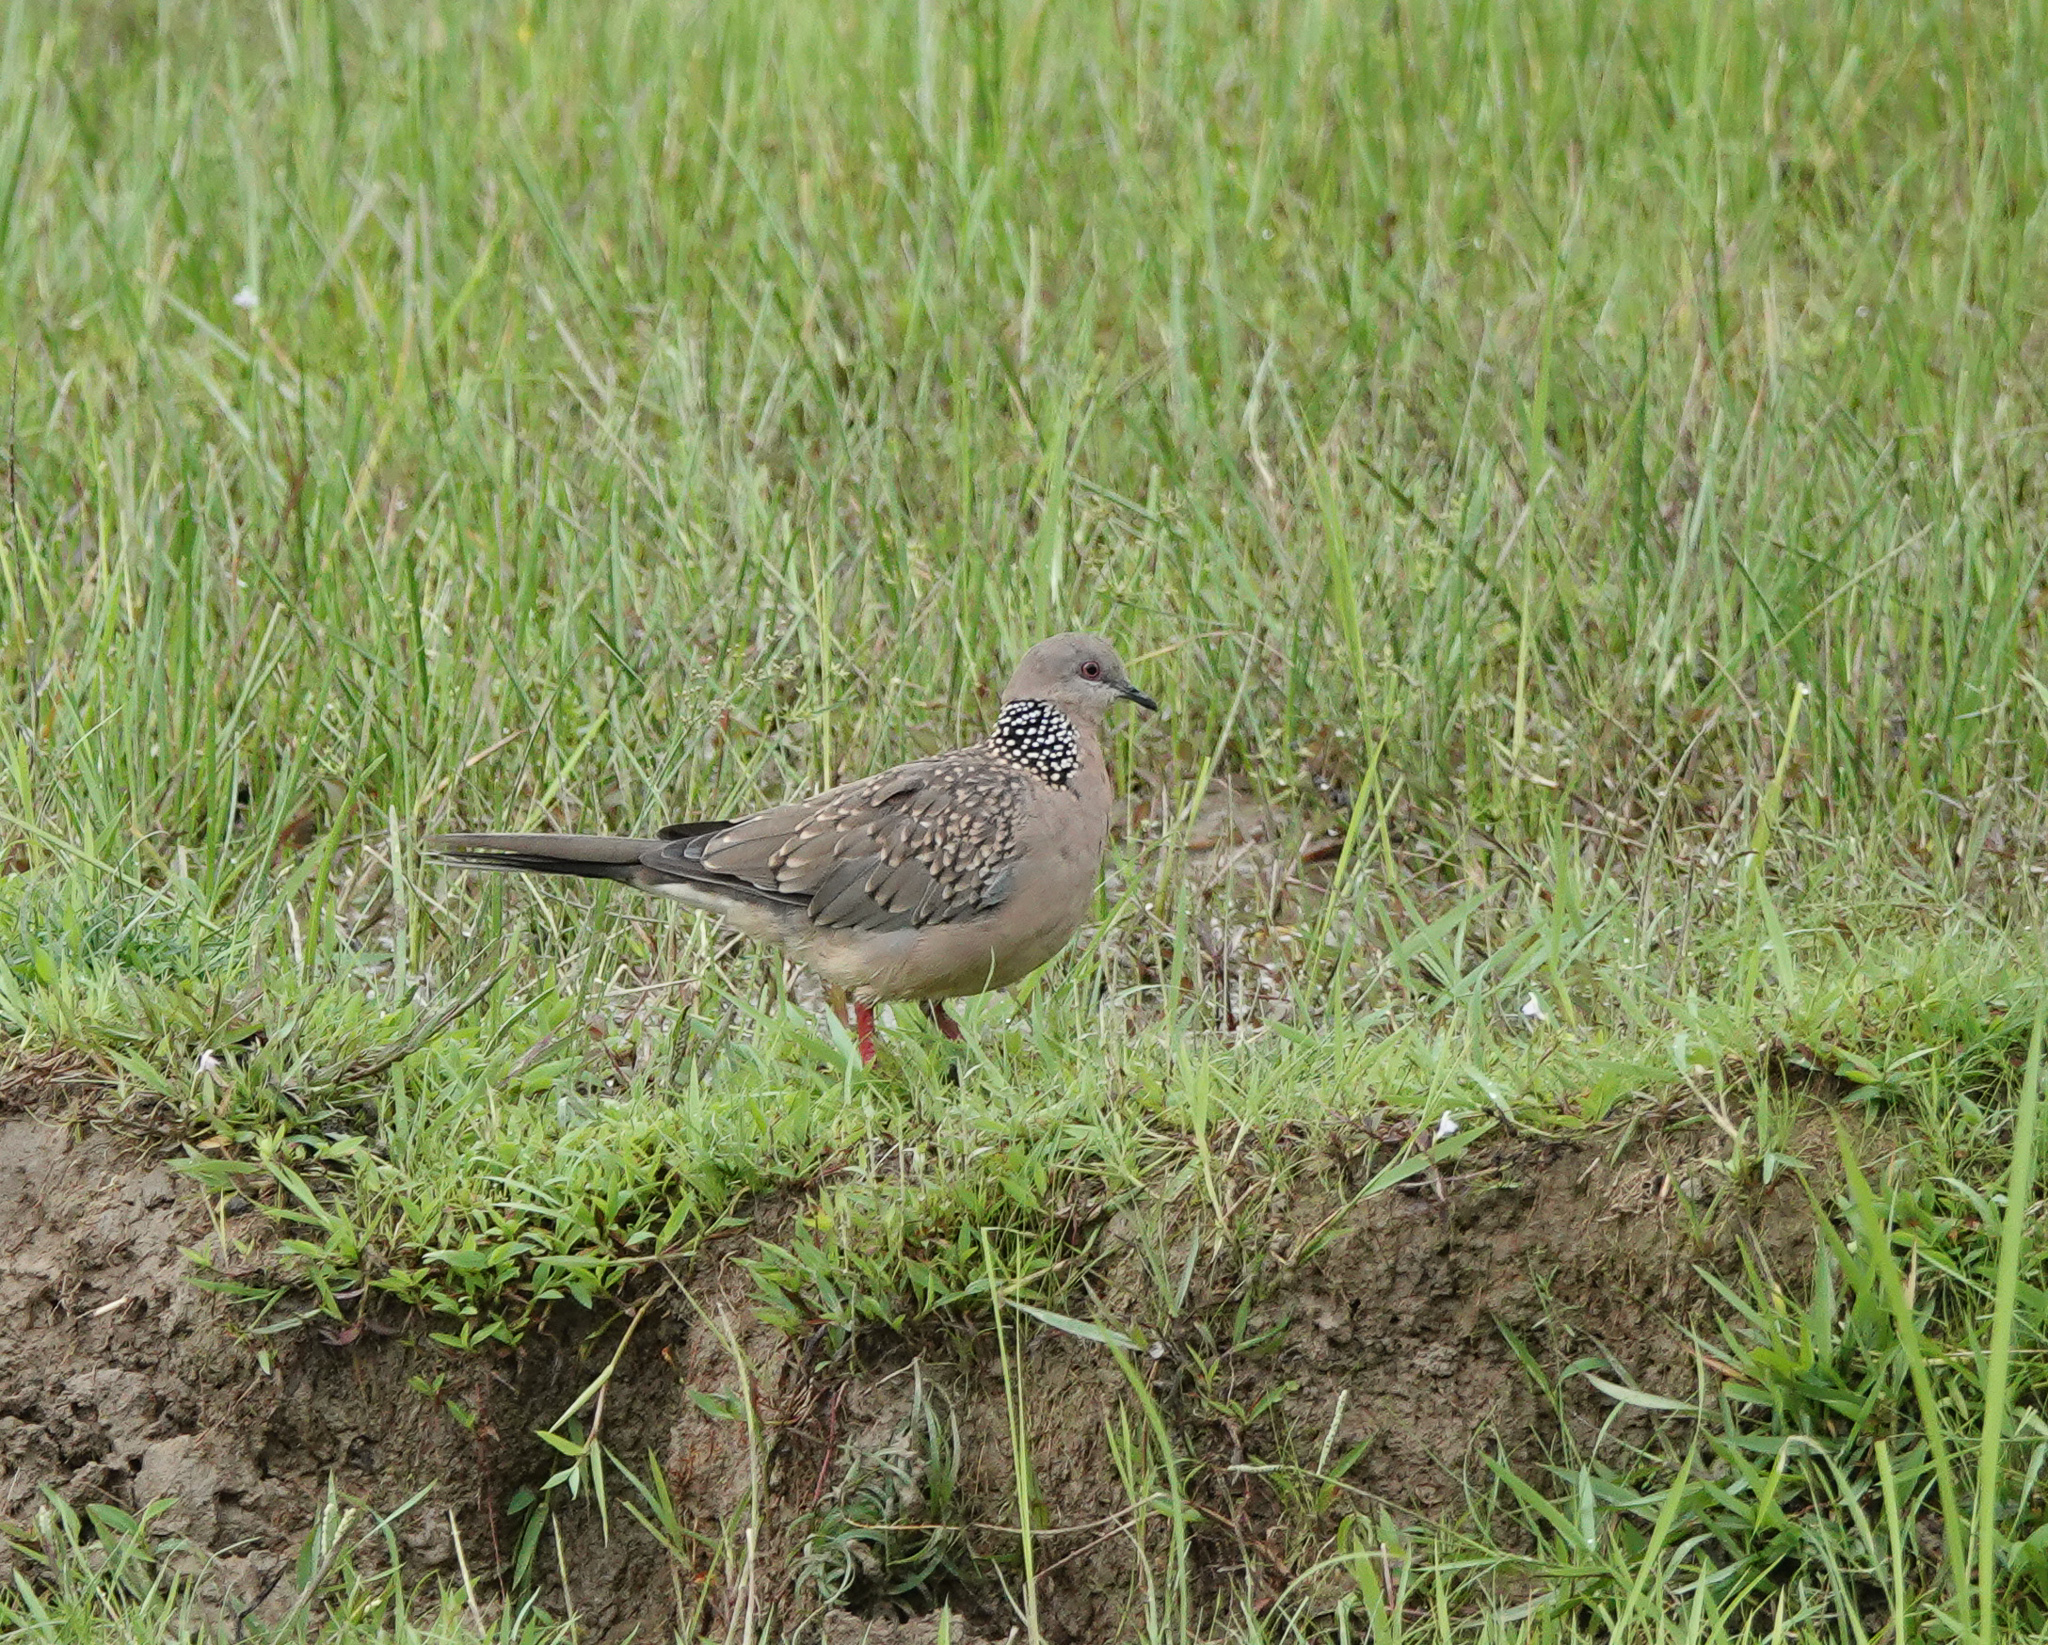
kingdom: Animalia
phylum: Chordata
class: Aves
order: Columbiformes
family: Columbidae
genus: Spilopelia
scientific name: Spilopelia chinensis
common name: Spotted dove
